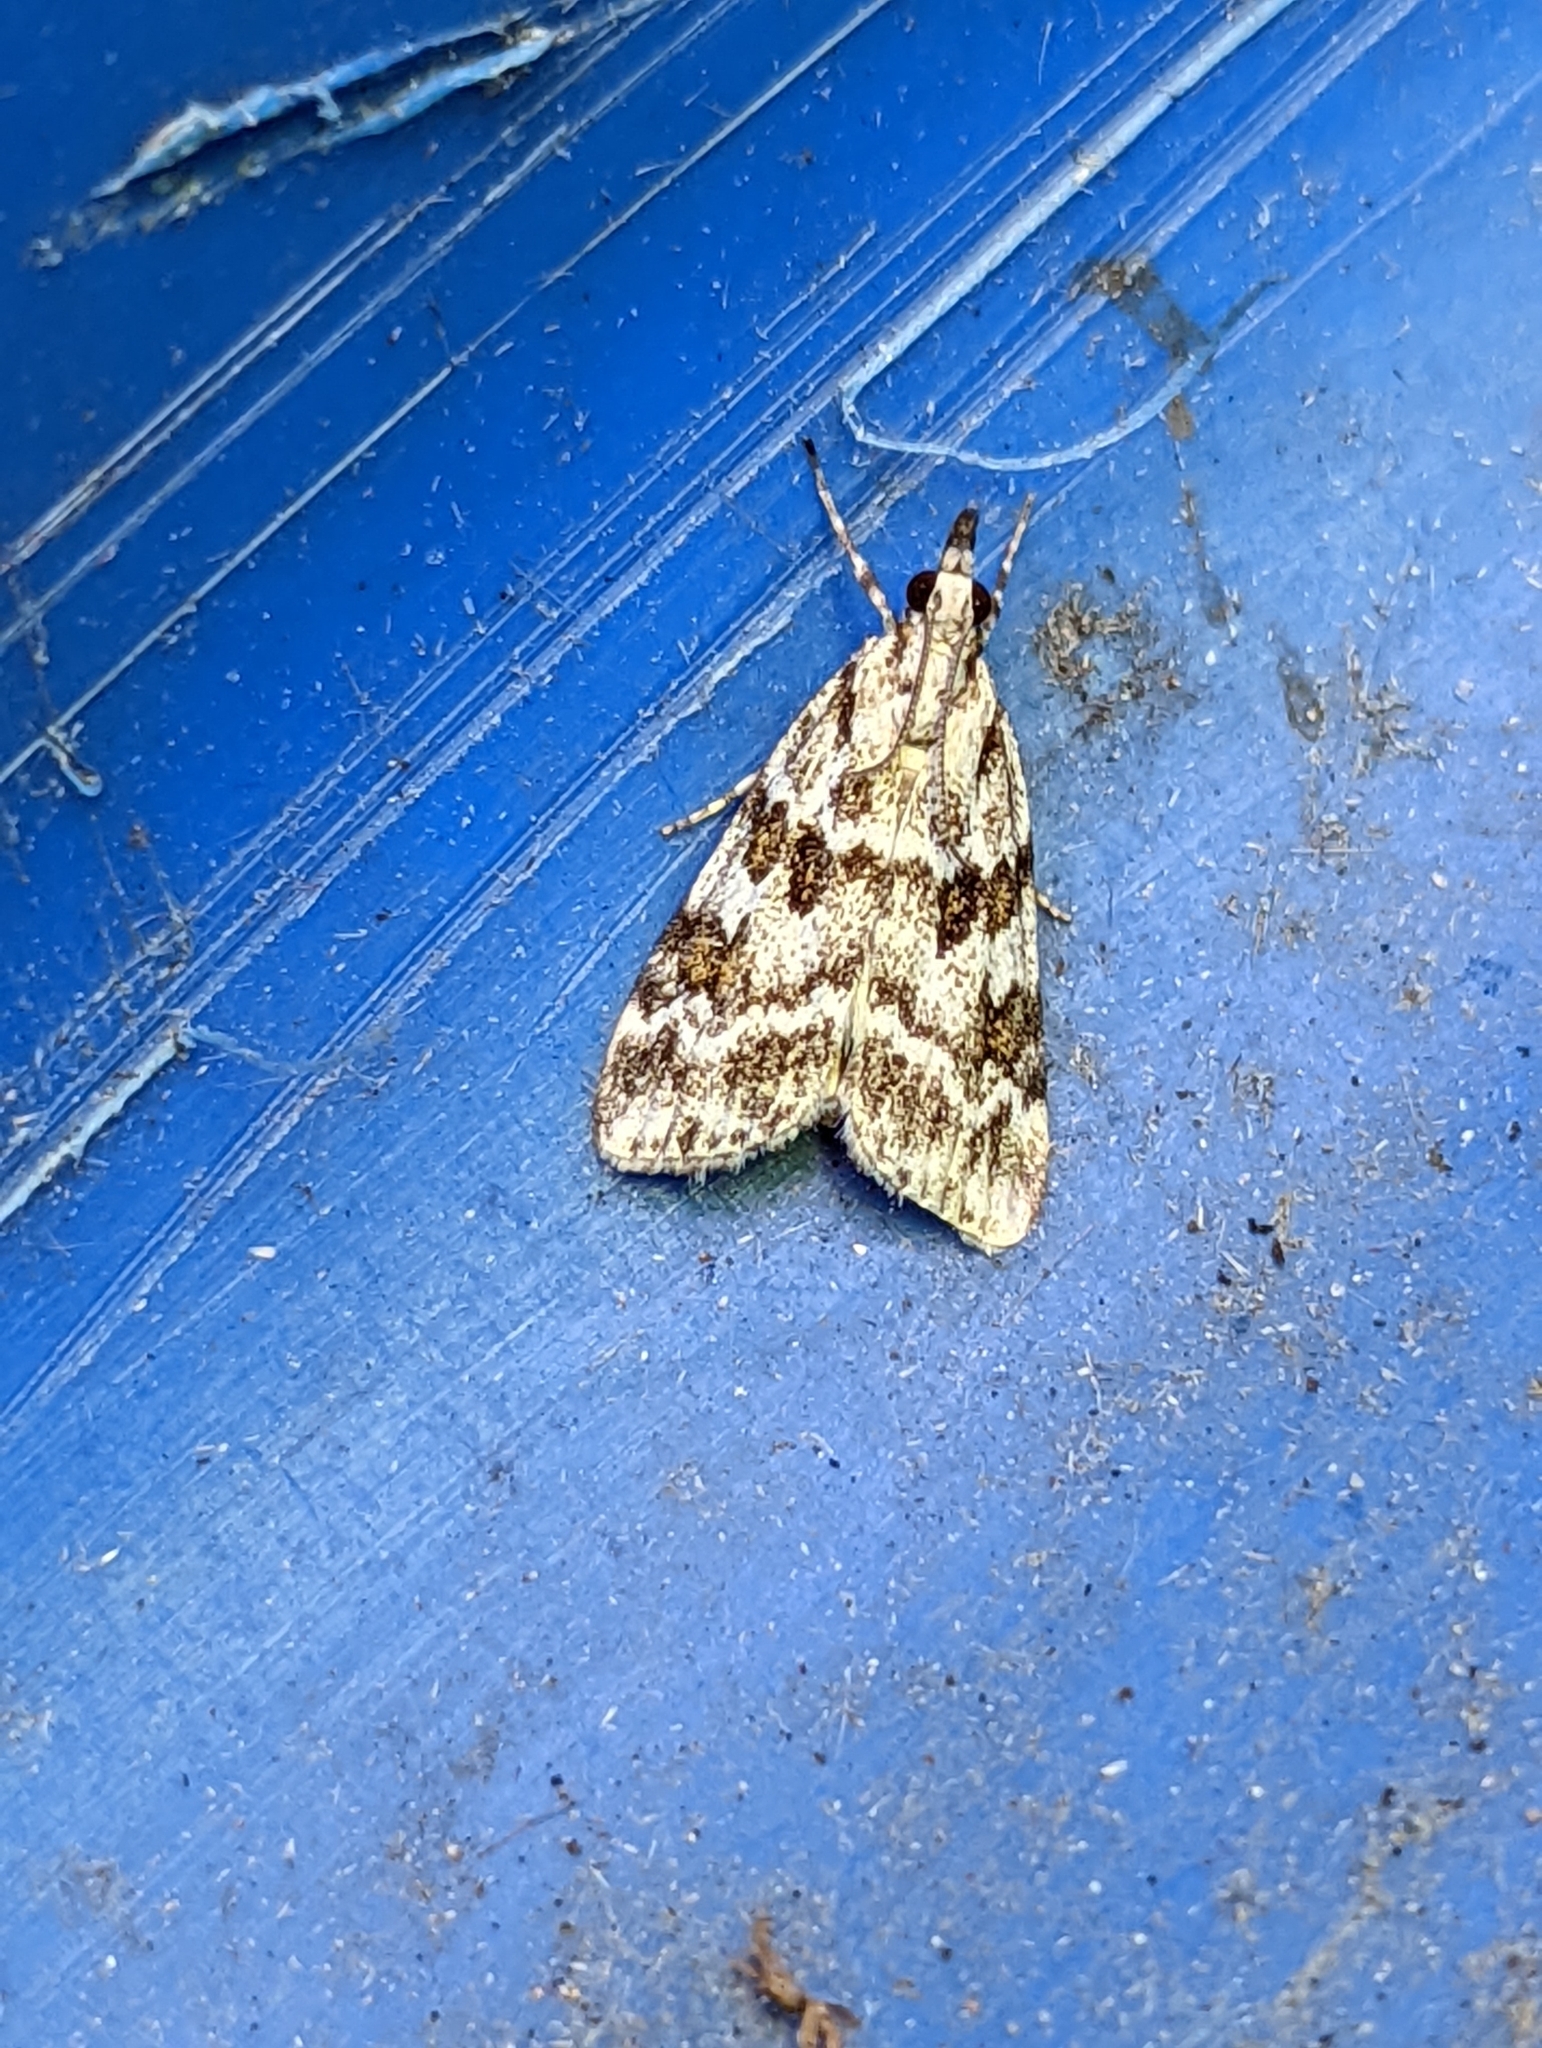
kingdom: Animalia
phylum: Arthropoda
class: Insecta
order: Lepidoptera
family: Crambidae
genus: Scoparia
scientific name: Scoparia pyralella
